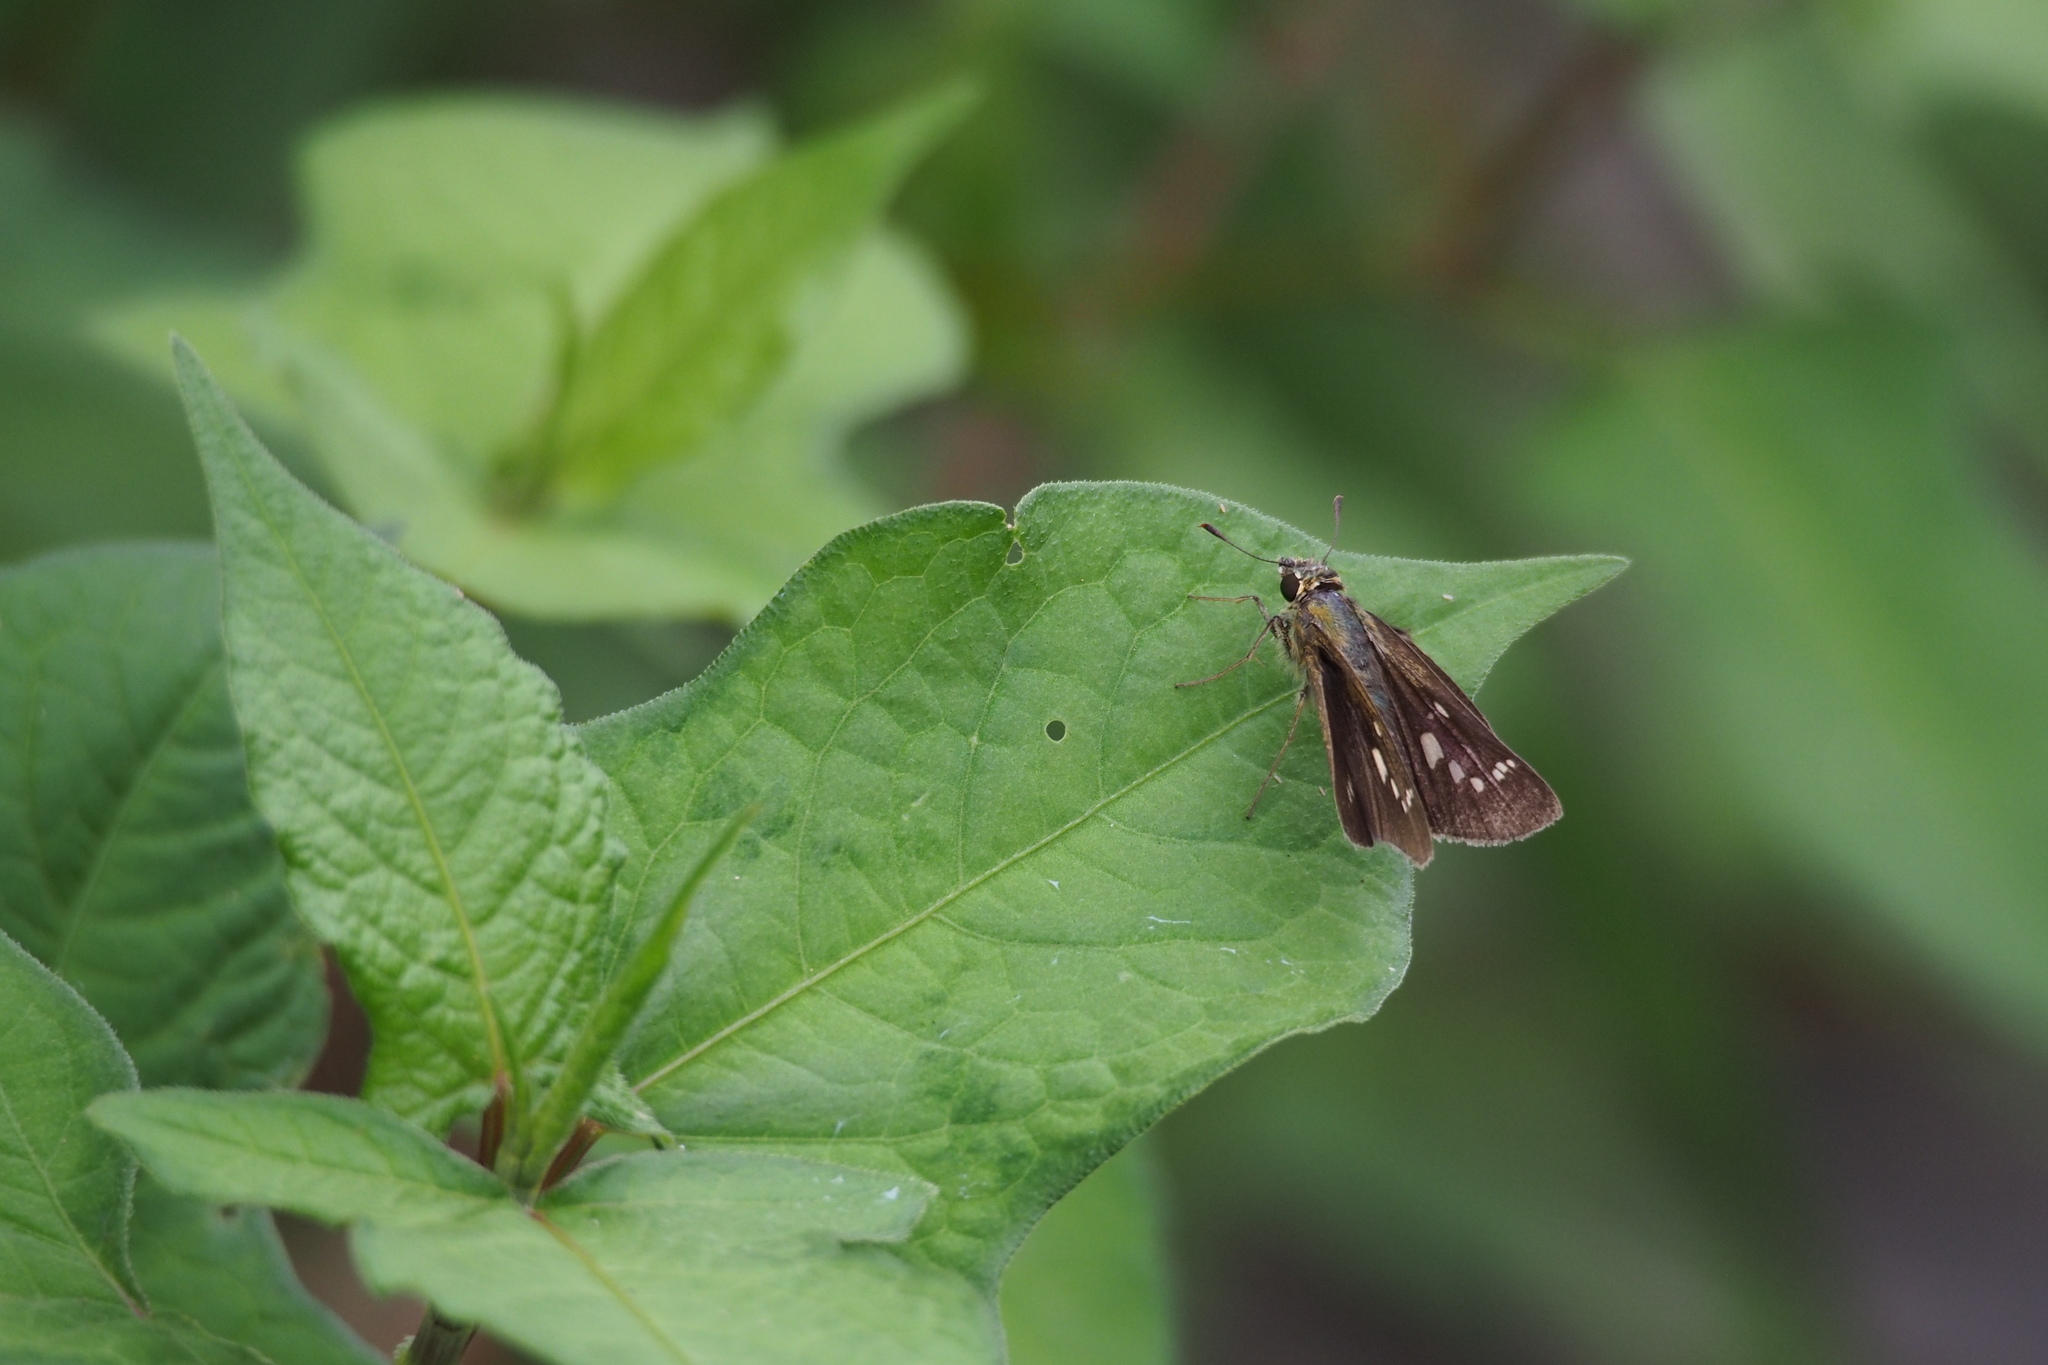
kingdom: Animalia
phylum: Arthropoda
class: Insecta
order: Lepidoptera
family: Hesperiidae
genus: Parnara
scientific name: Parnara guttatus
